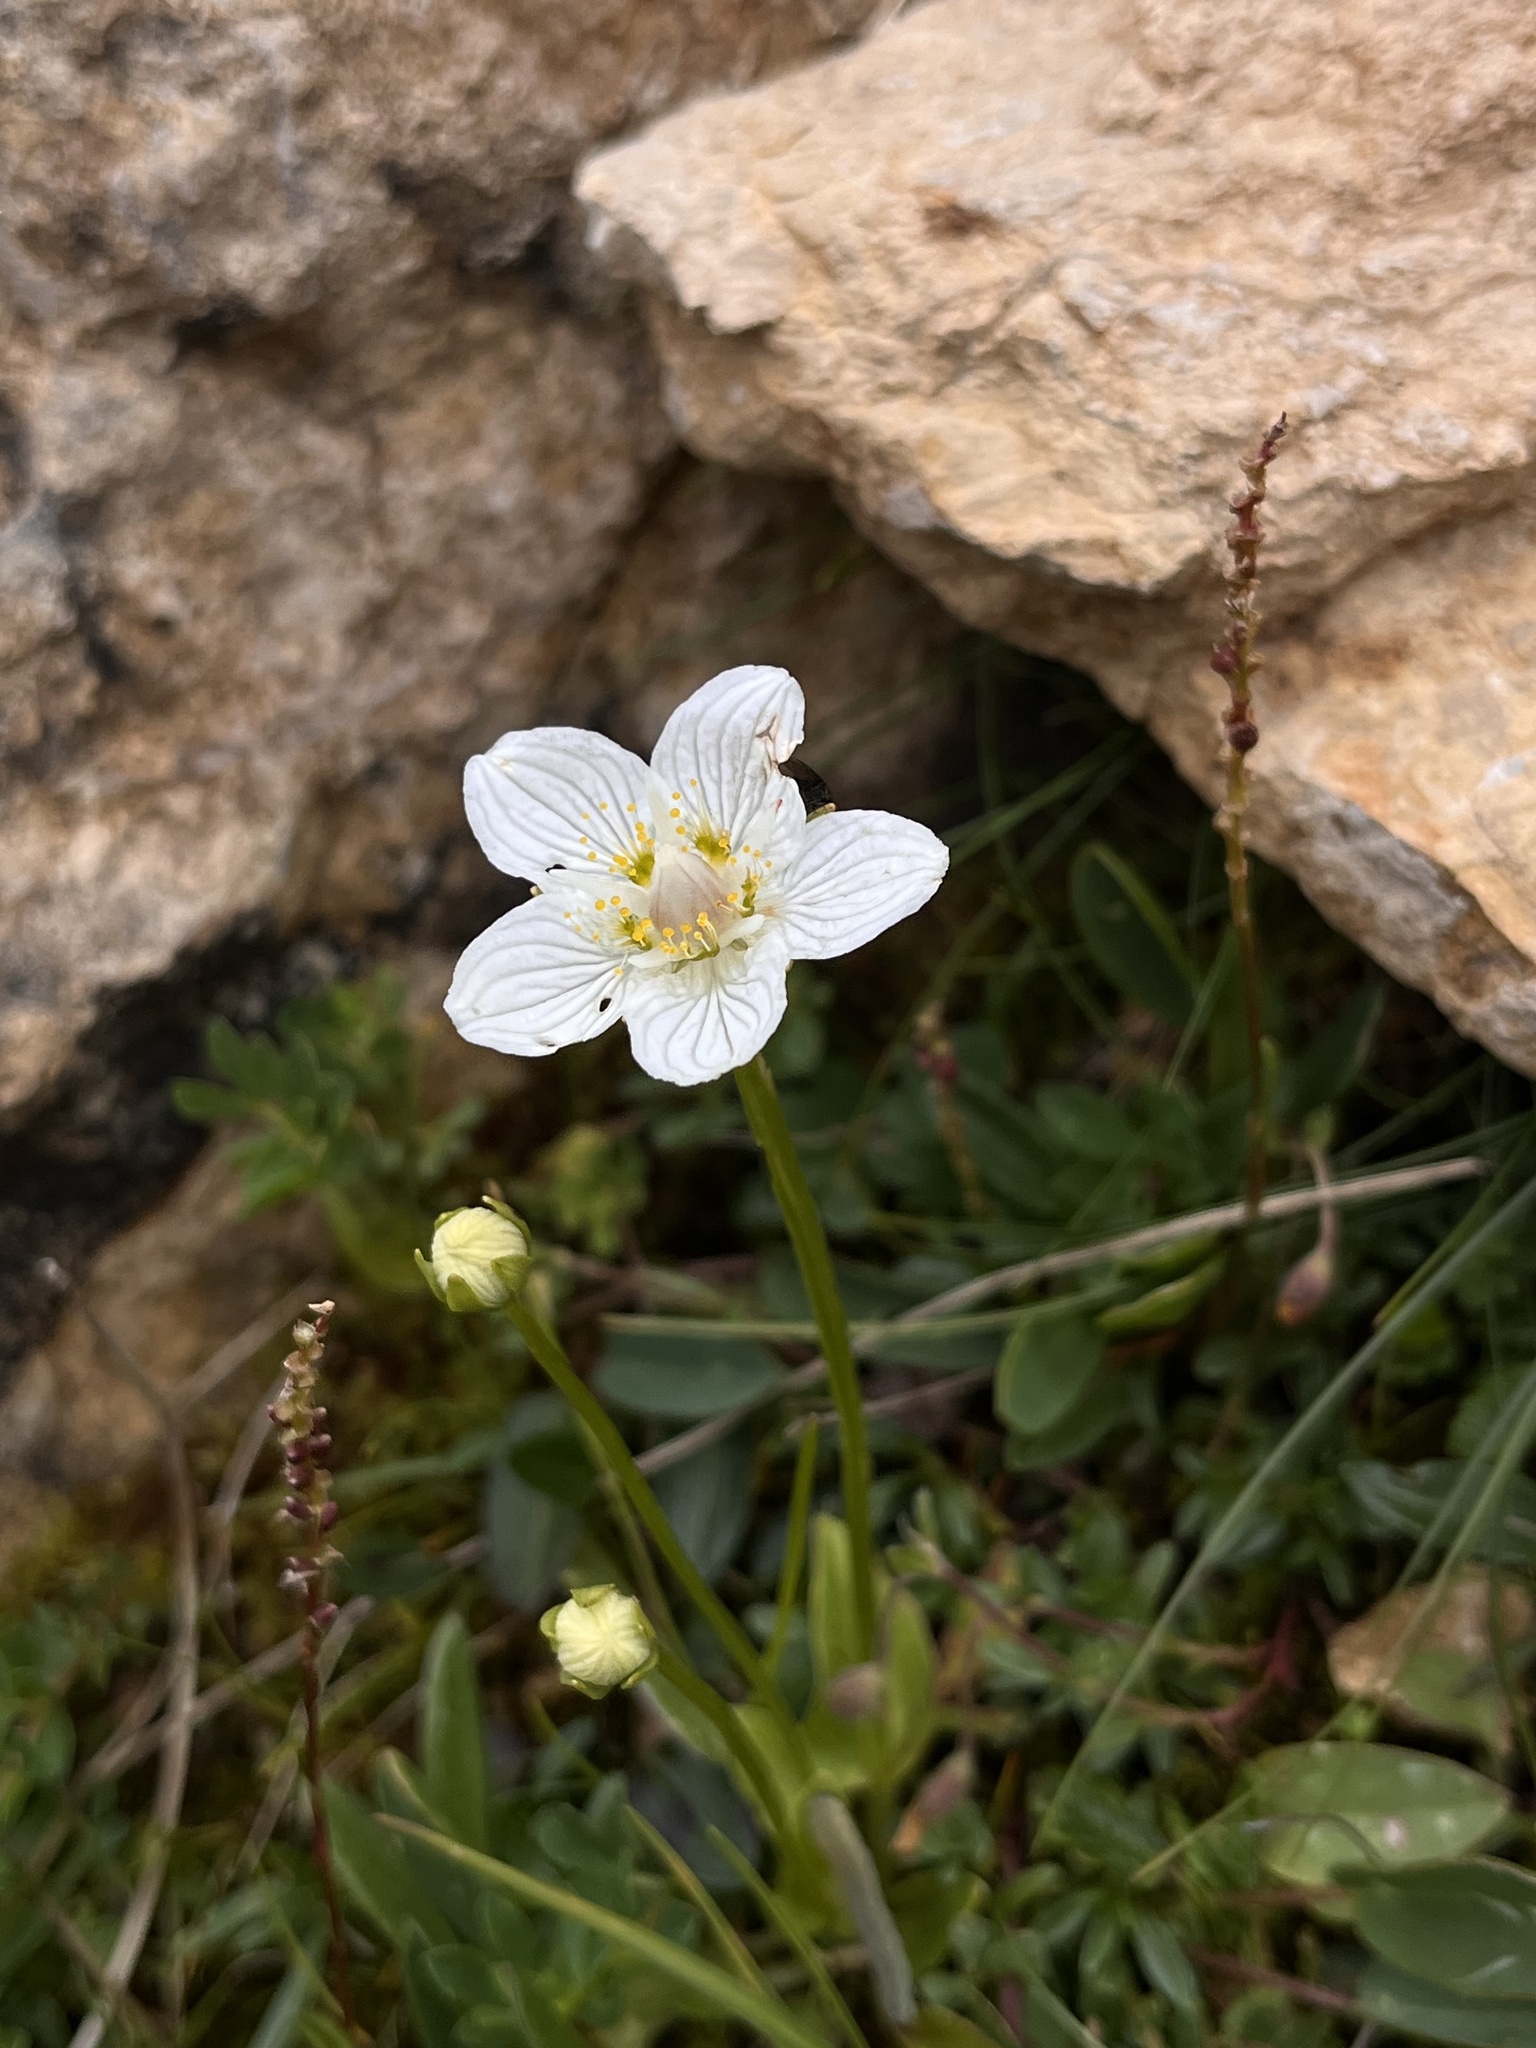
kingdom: Plantae
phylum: Tracheophyta
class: Magnoliopsida
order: Celastrales
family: Parnassiaceae
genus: Parnassia
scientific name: Parnassia palustris
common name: Grass-of-parnassus
